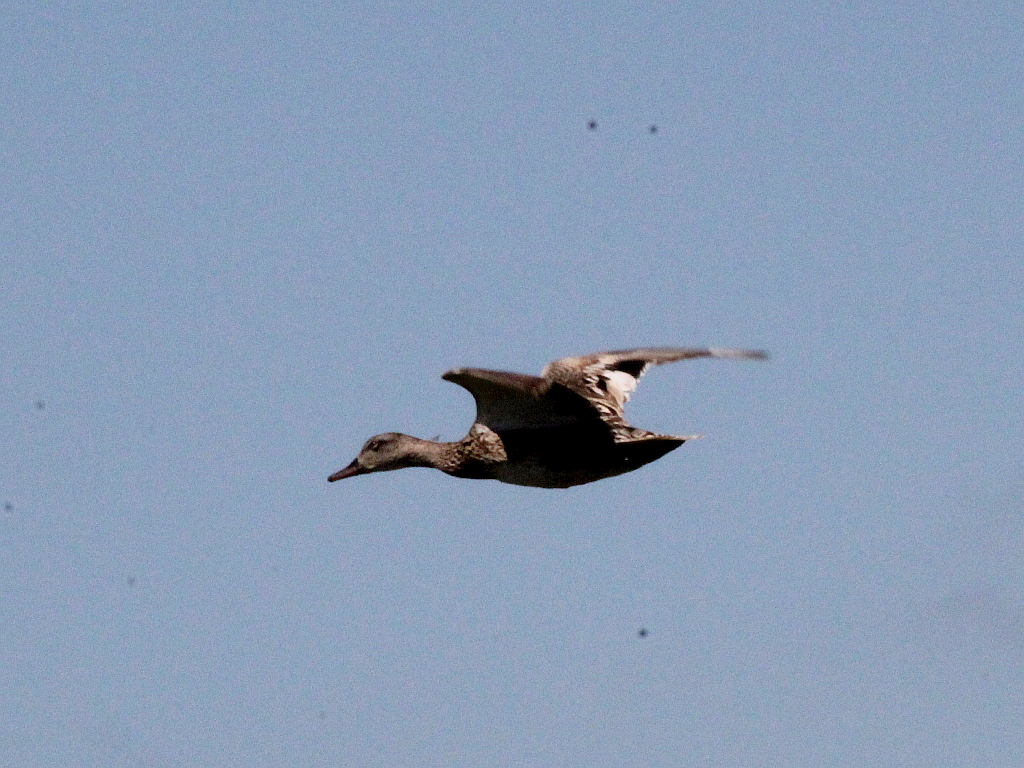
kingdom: Animalia
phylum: Chordata
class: Aves
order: Anseriformes
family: Anatidae
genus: Mareca
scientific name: Mareca strepera
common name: Gadwall
